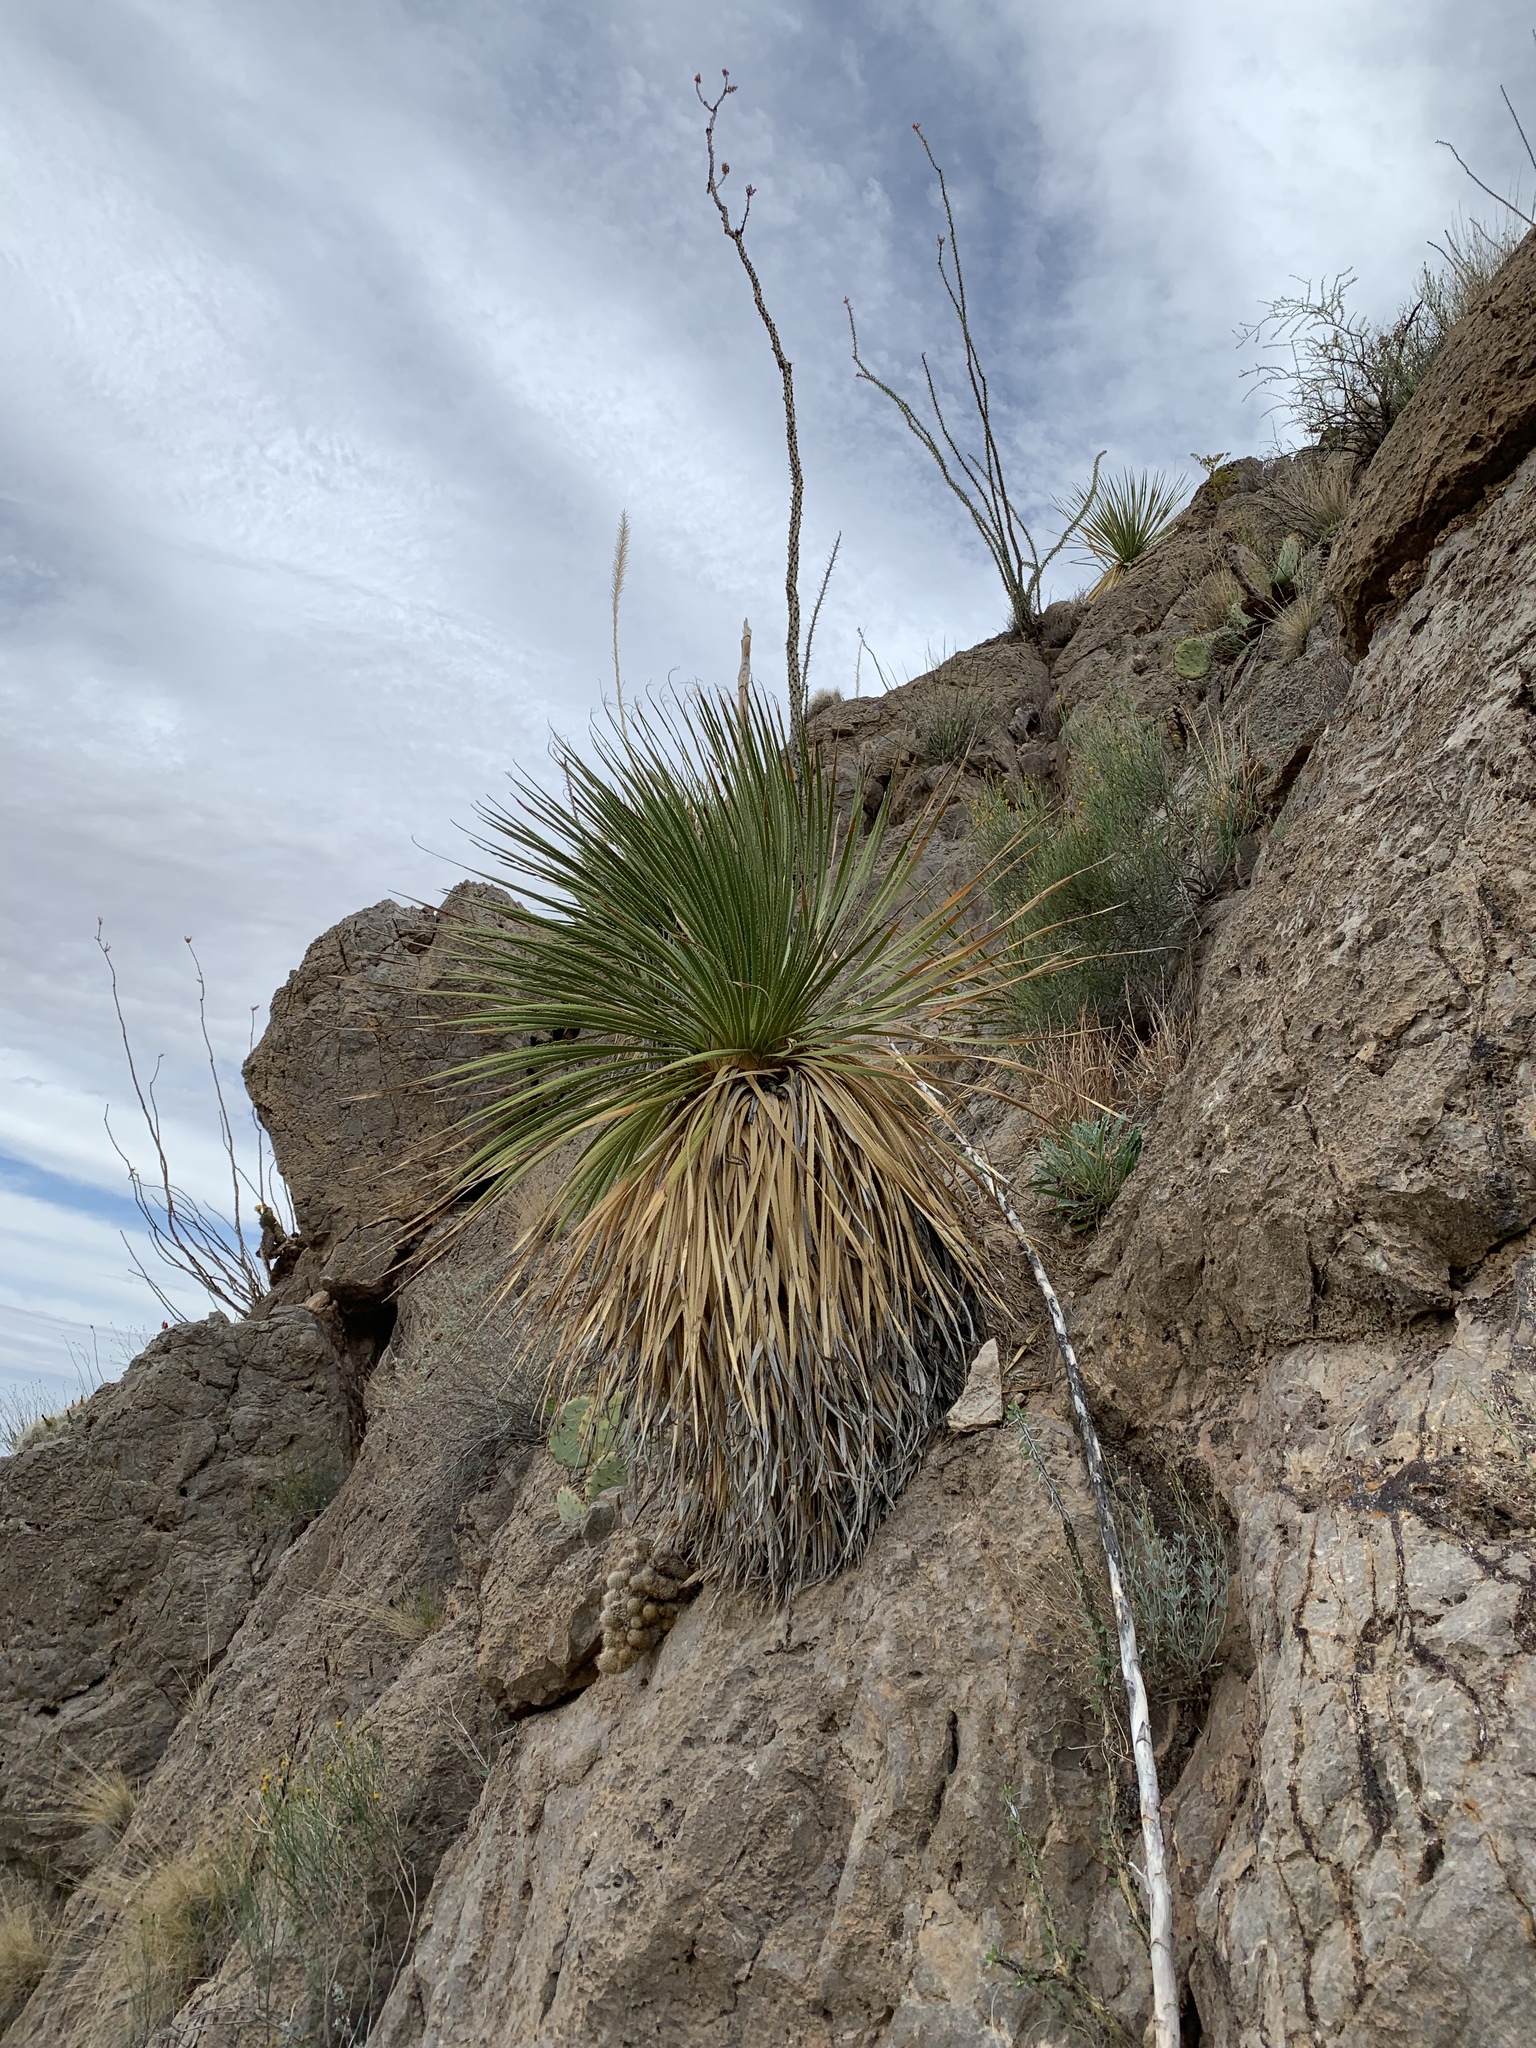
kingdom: Plantae
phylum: Tracheophyta
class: Liliopsida
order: Asparagales
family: Asparagaceae
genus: Dasylirion
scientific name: Dasylirion wheeleri
